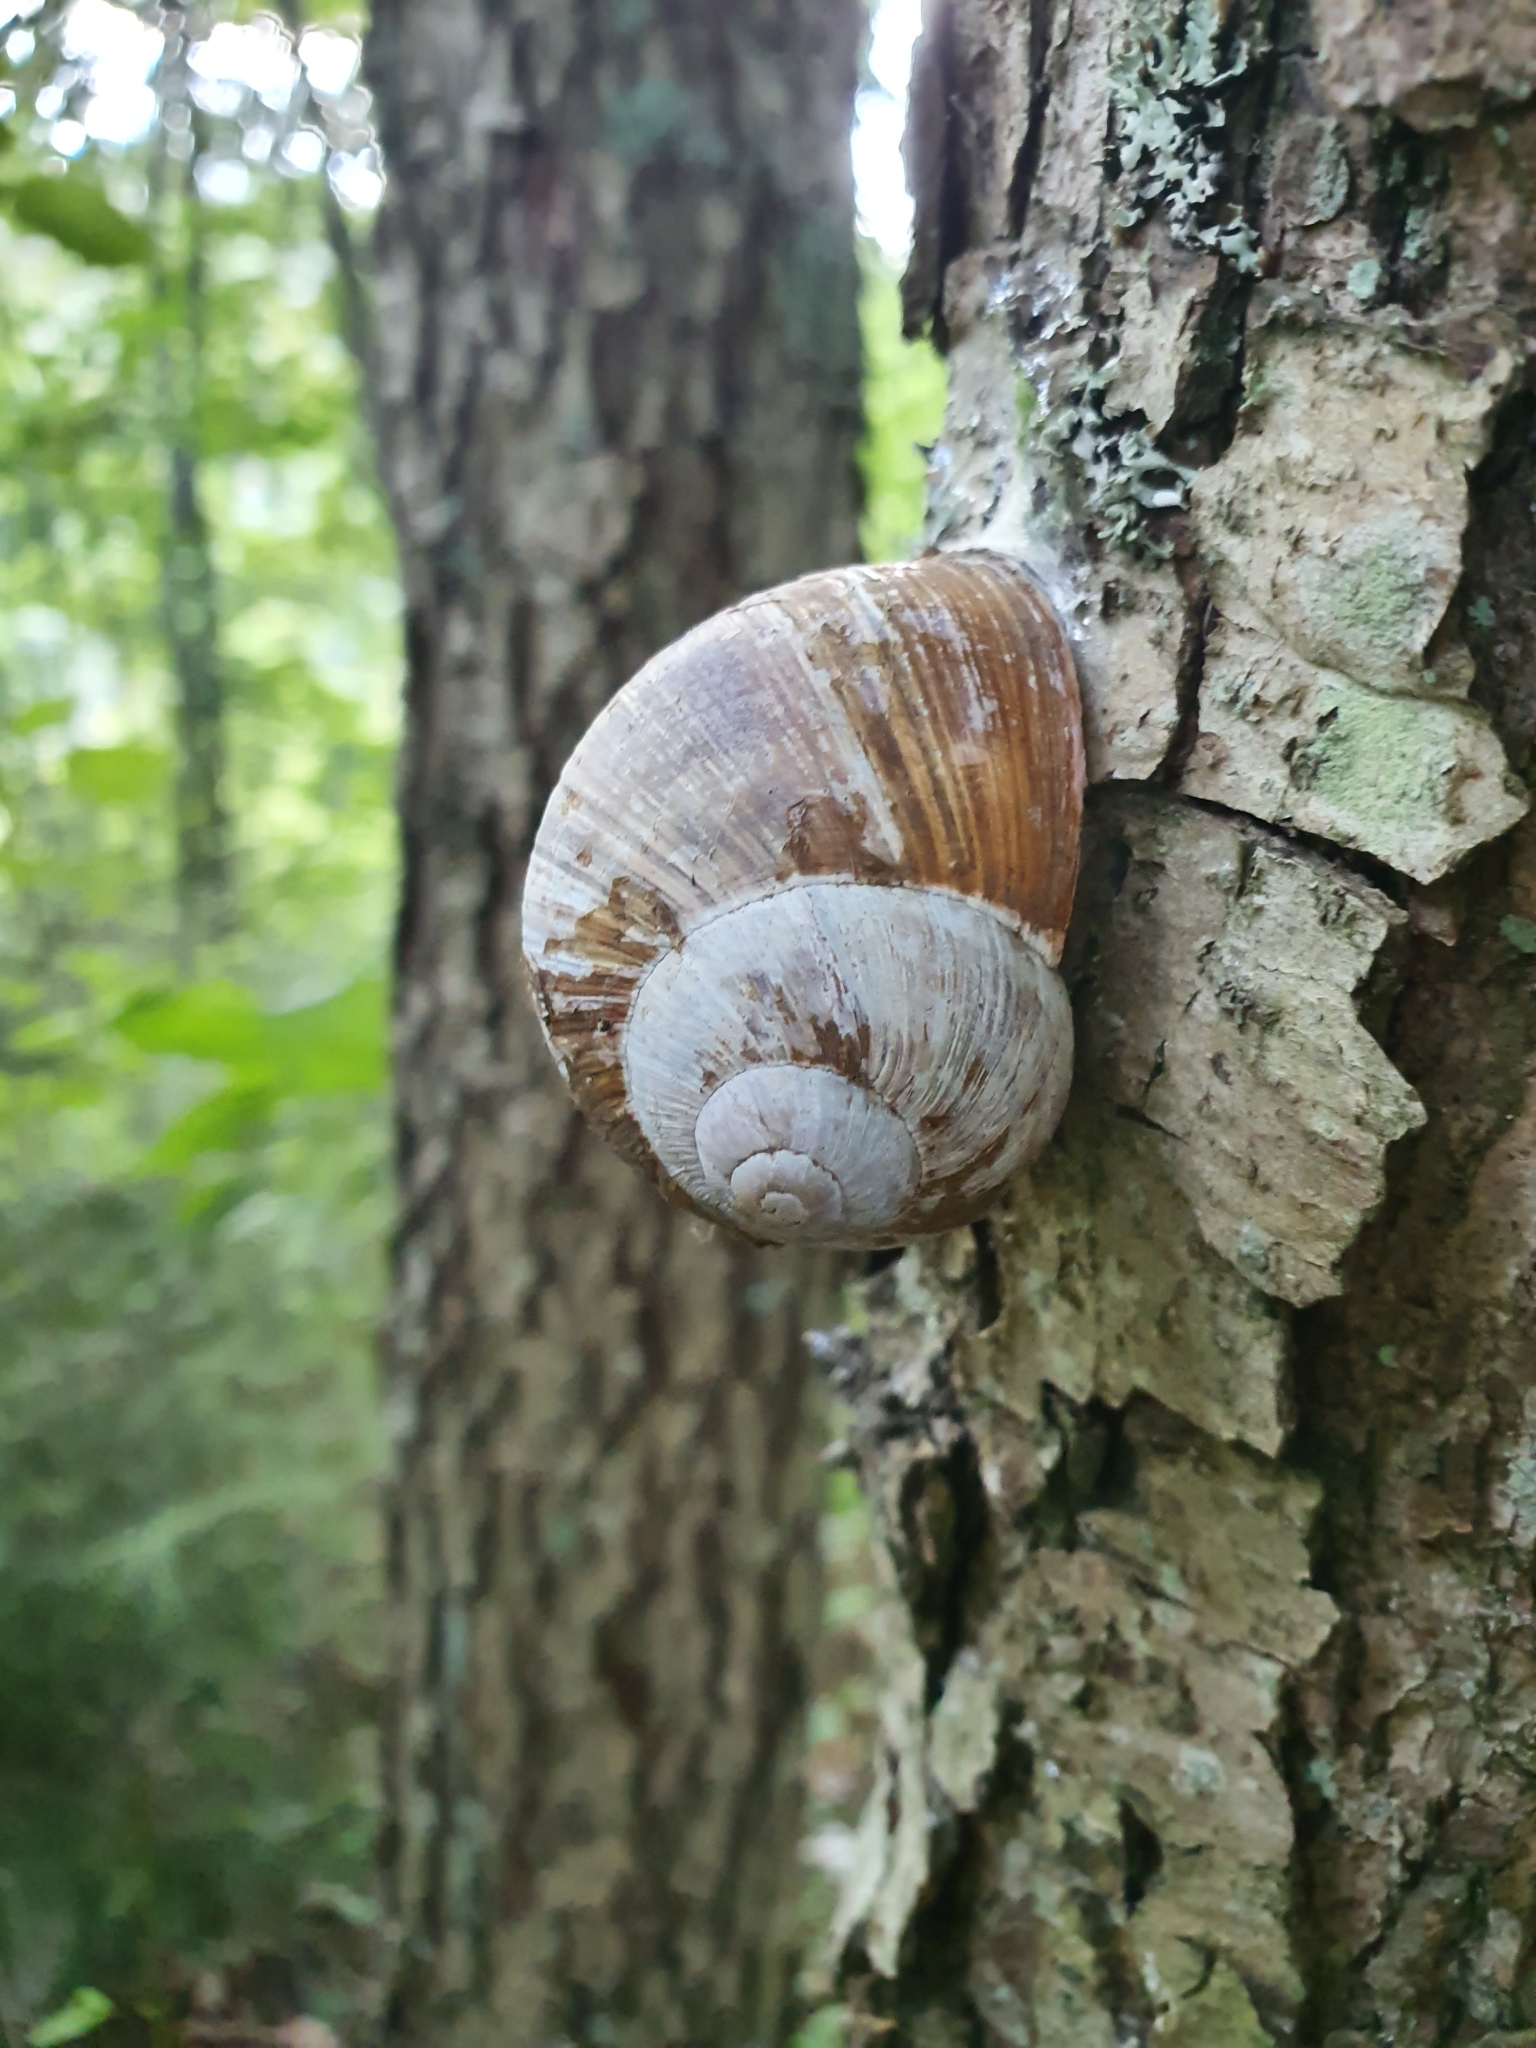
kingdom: Animalia
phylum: Mollusca
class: Gastropoda
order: Stylommatophora
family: Helicidae
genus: Helix
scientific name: Helix pomatia
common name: Roman snail
